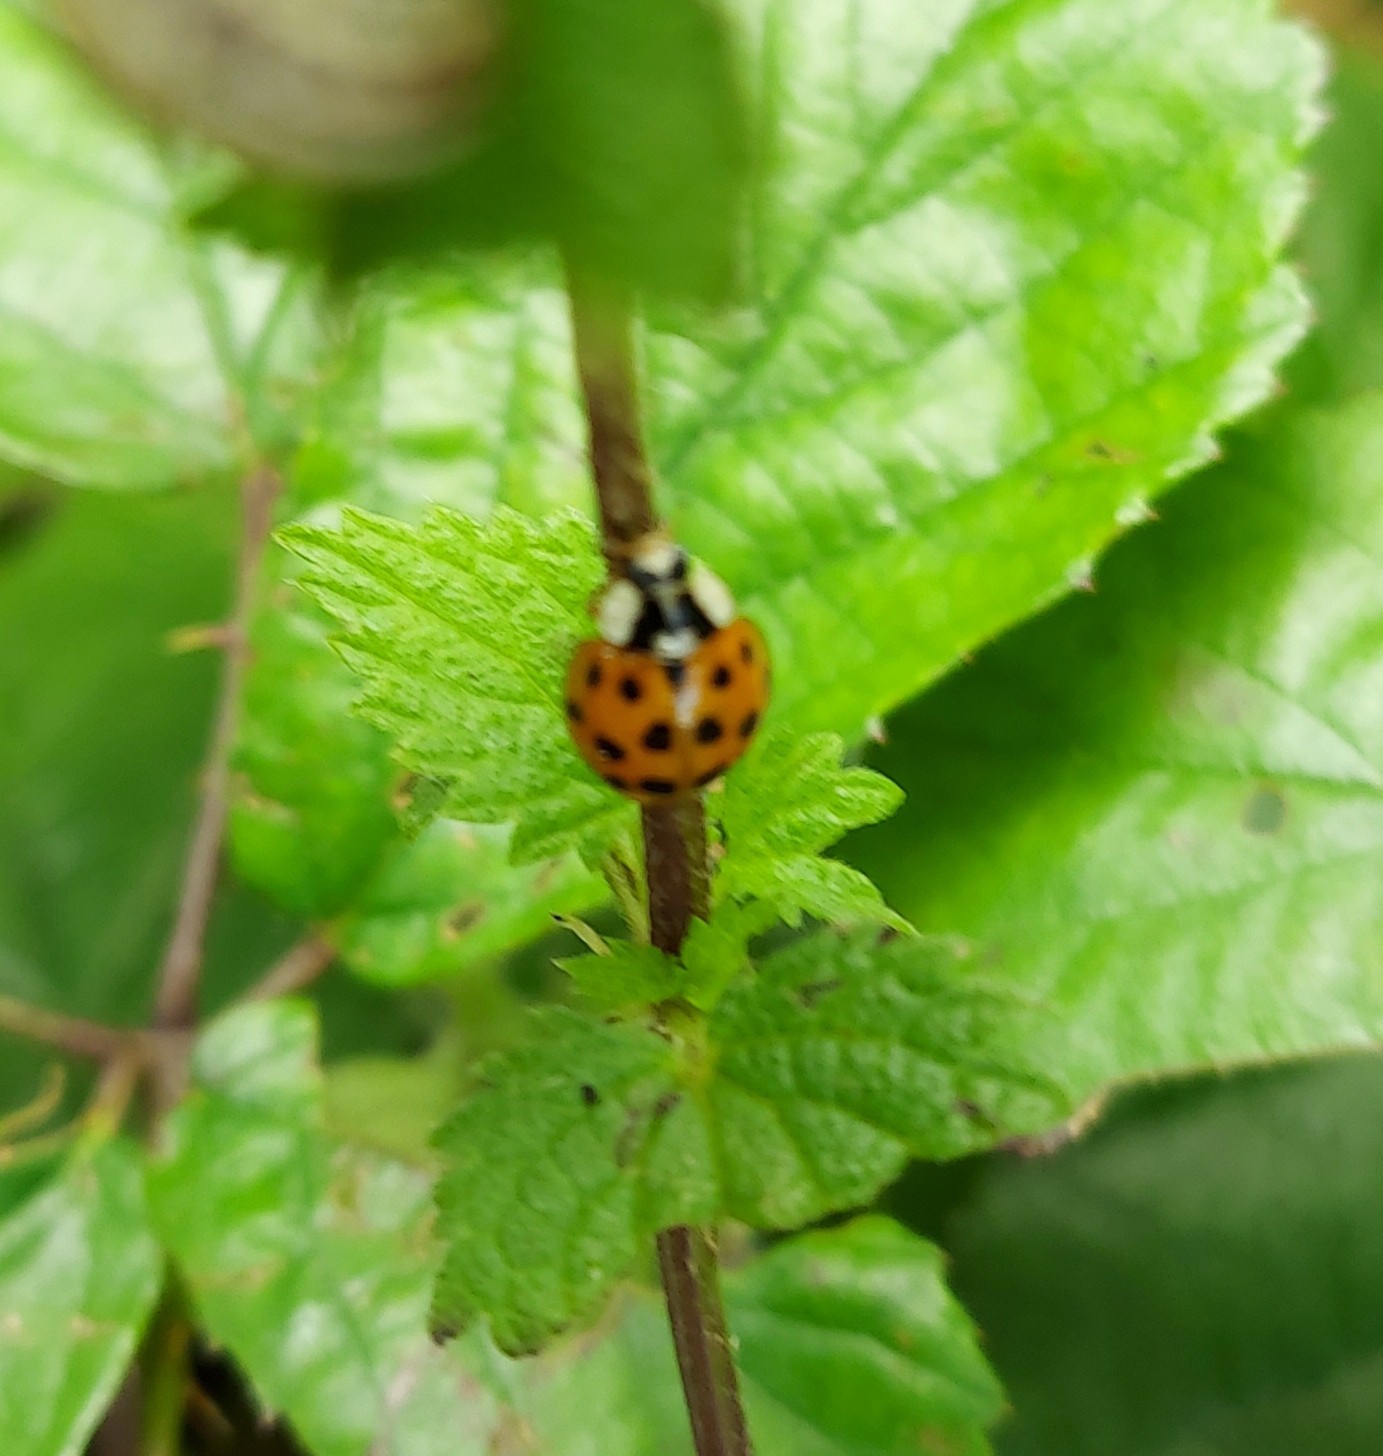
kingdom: Animalia
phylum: Arthropoda
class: Insecta
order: Coleoptera
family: Coccinellidae
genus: Harmonia
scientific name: Harmonia axyridis
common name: Harlequin ladybird
